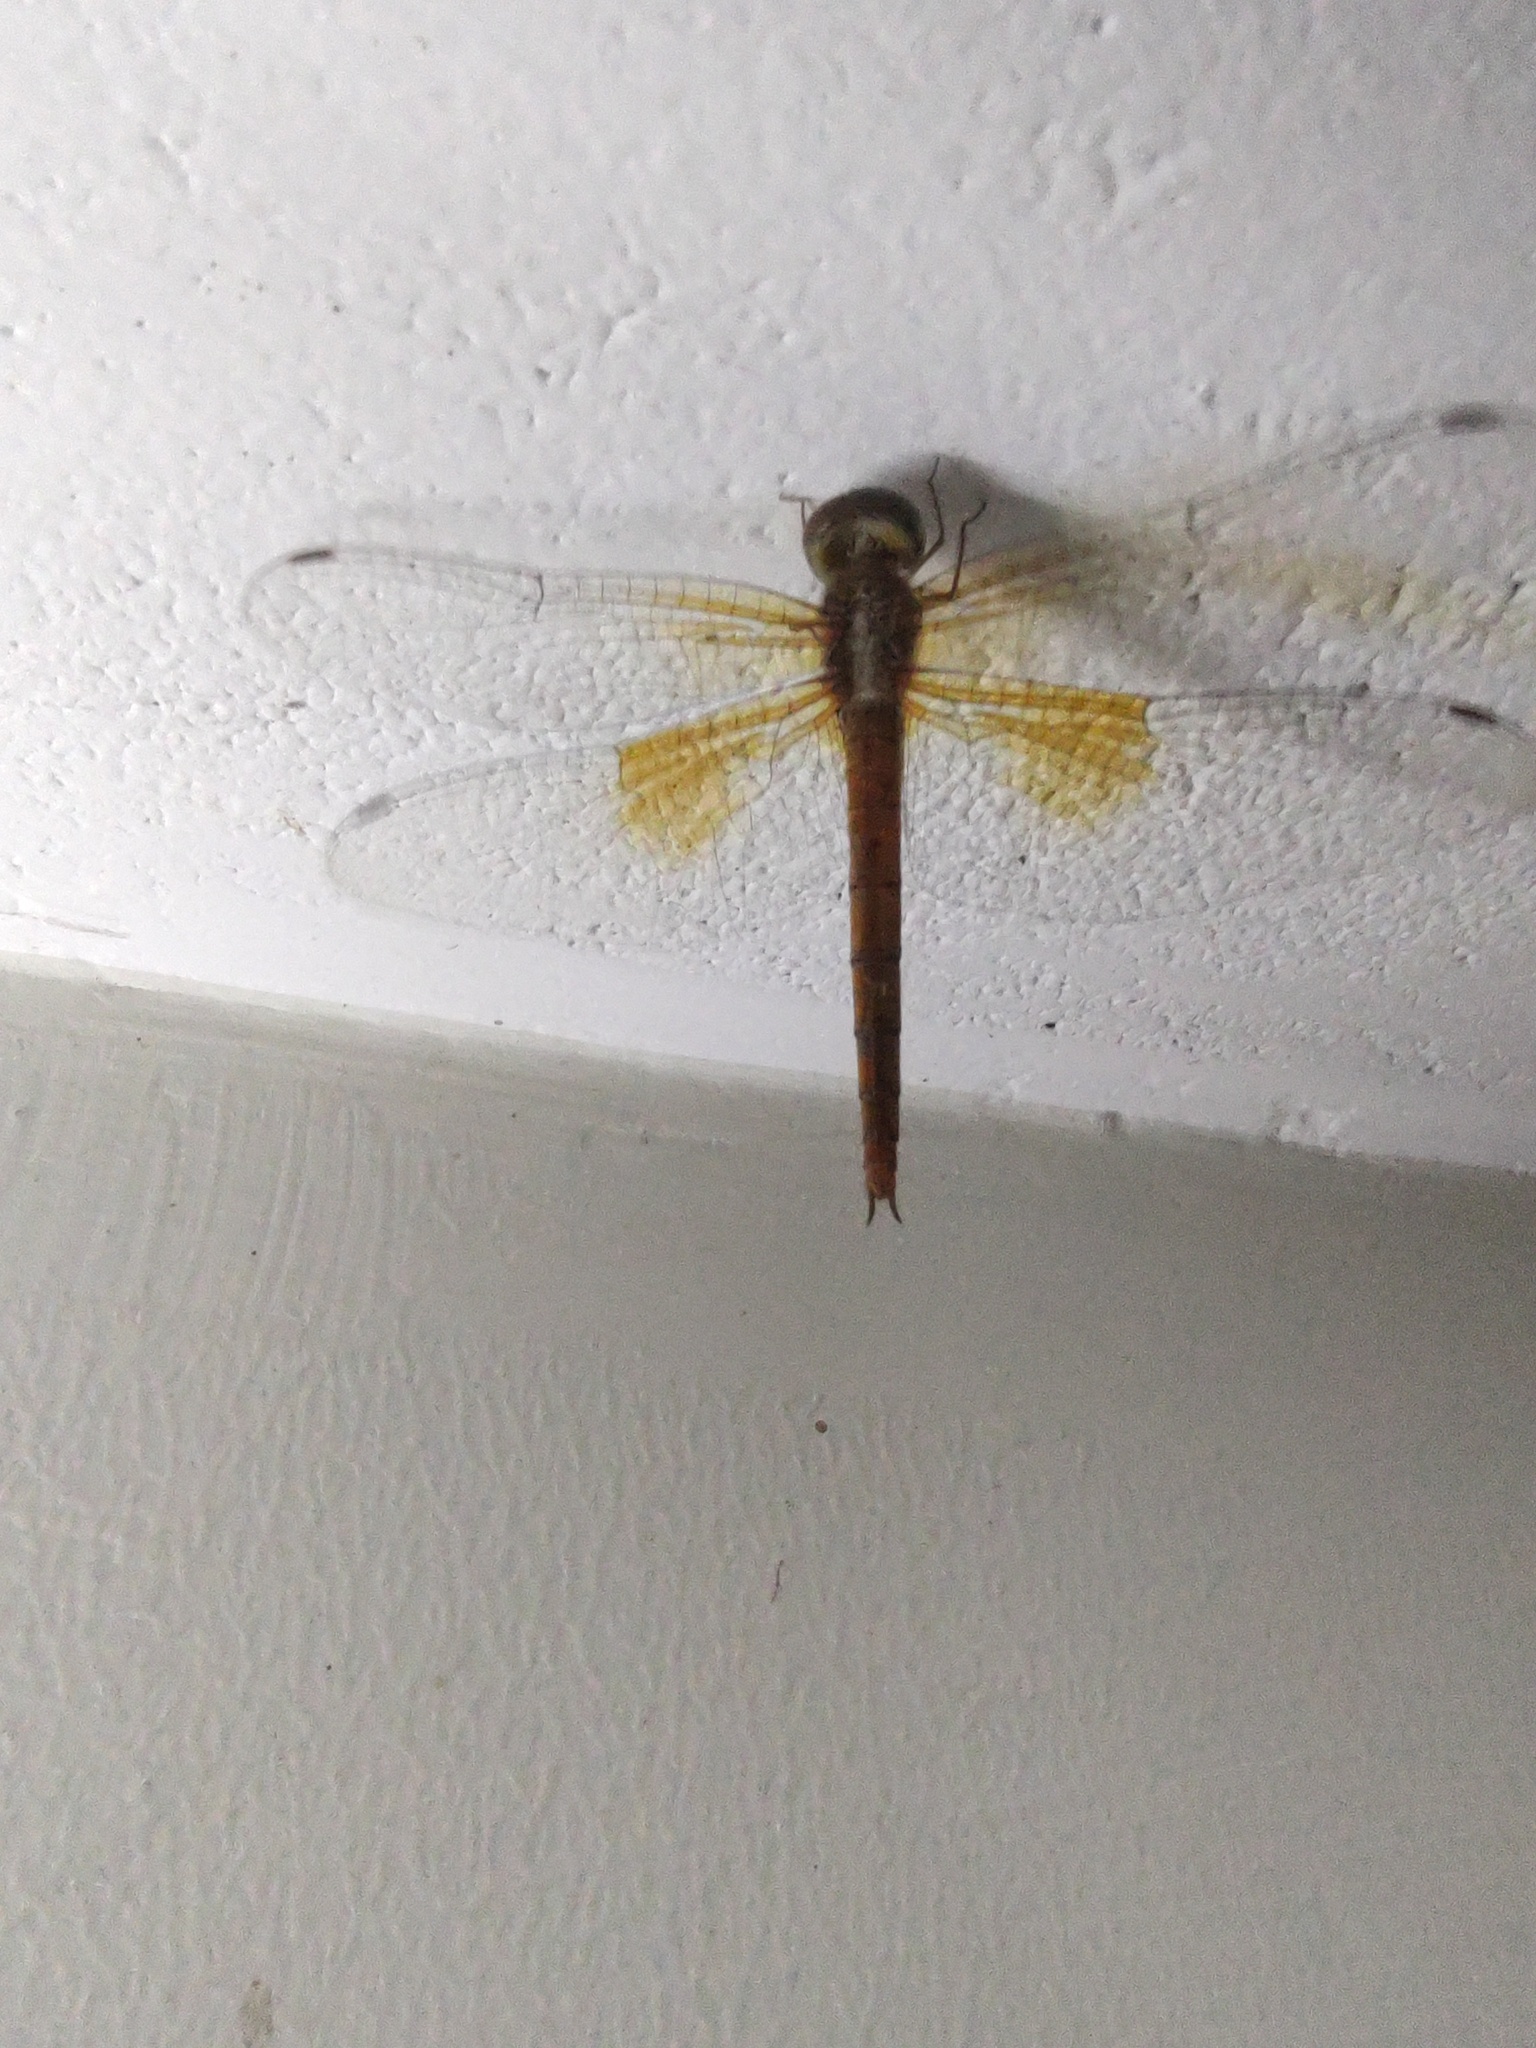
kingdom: Animalia
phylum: Arthropoda
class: Insecta
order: Odonata
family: Libellulidae
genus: Tholymis
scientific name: Tholymis tillarga
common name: Coral-tailed cloud wing
